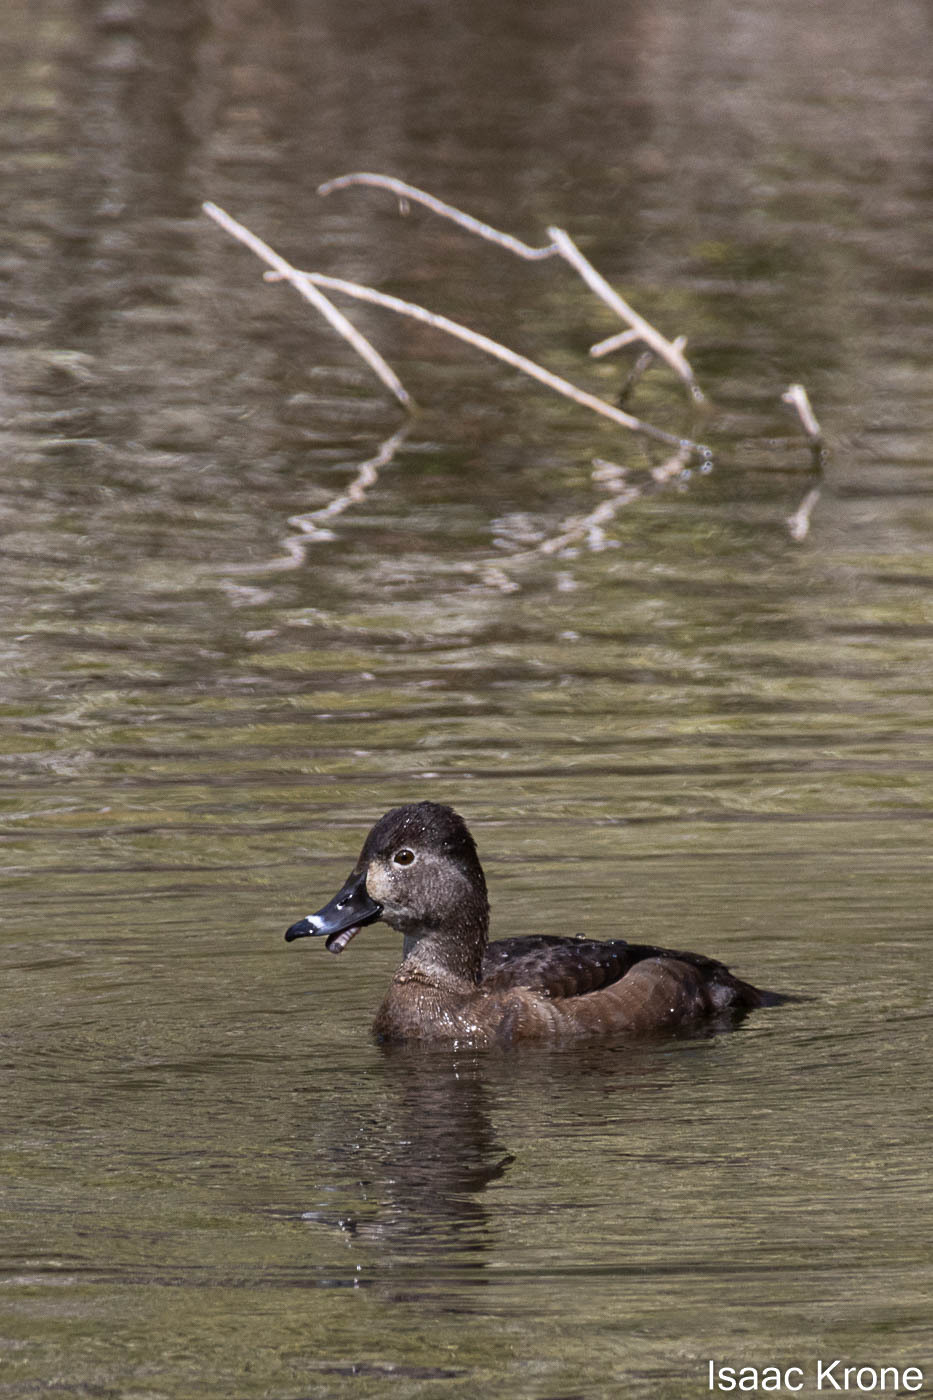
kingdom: Animalia
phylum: Chordata
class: Aves
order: Anseriformes
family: Anatidae
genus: Aythya
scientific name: Aythya collaris
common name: Ring-necked duck
